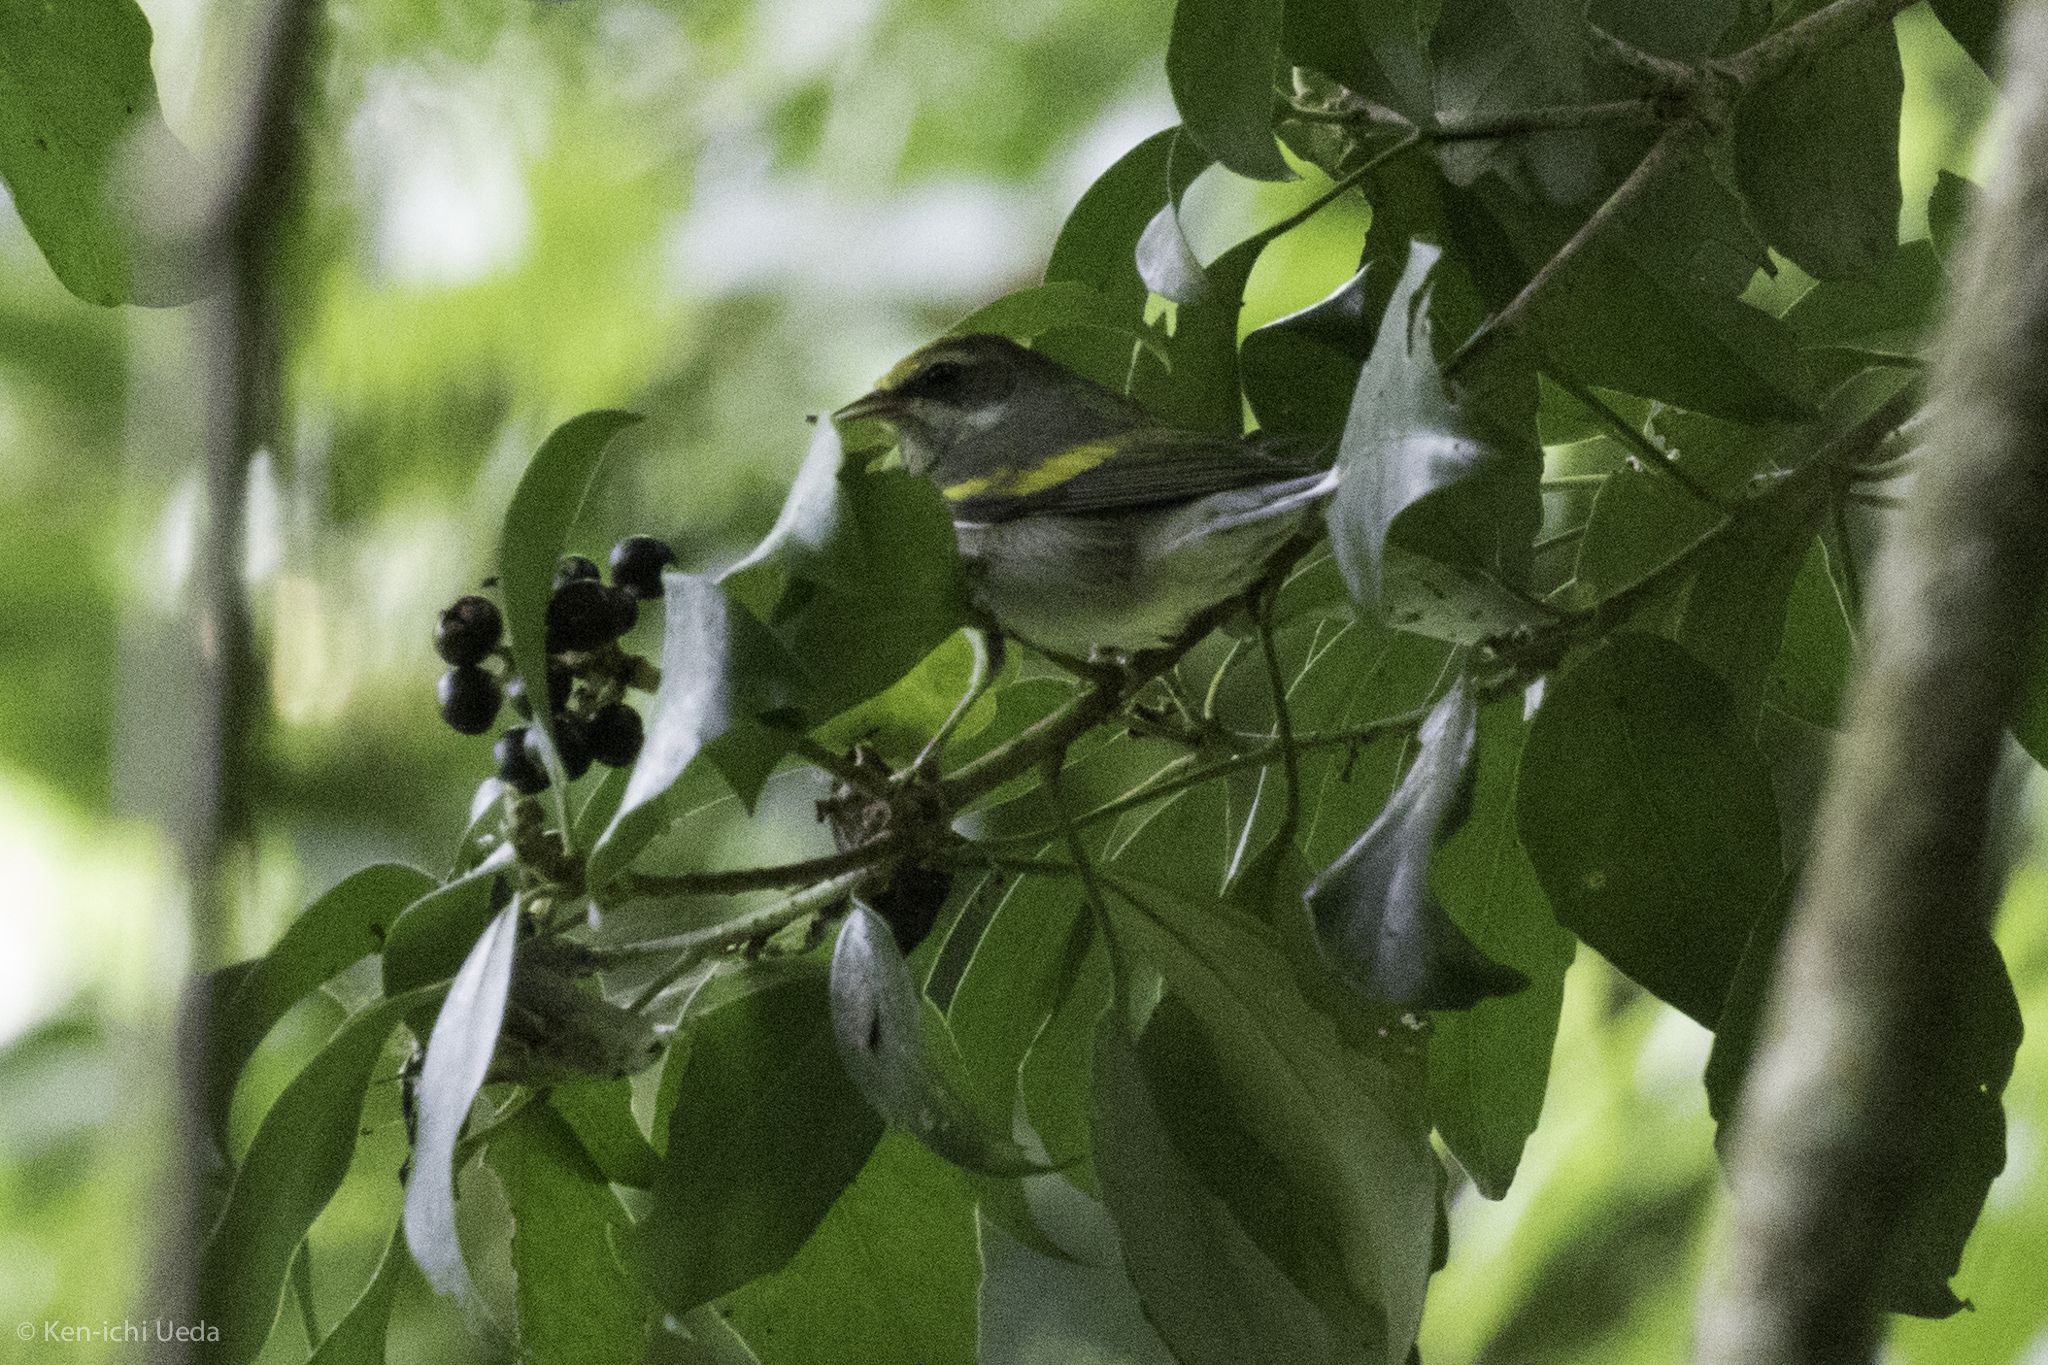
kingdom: Animalia
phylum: Chordata
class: Aves
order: Passeriformes
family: Parulidae
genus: Vermivora
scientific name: Vermivora chrysoptera
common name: Golden-winged warbler
